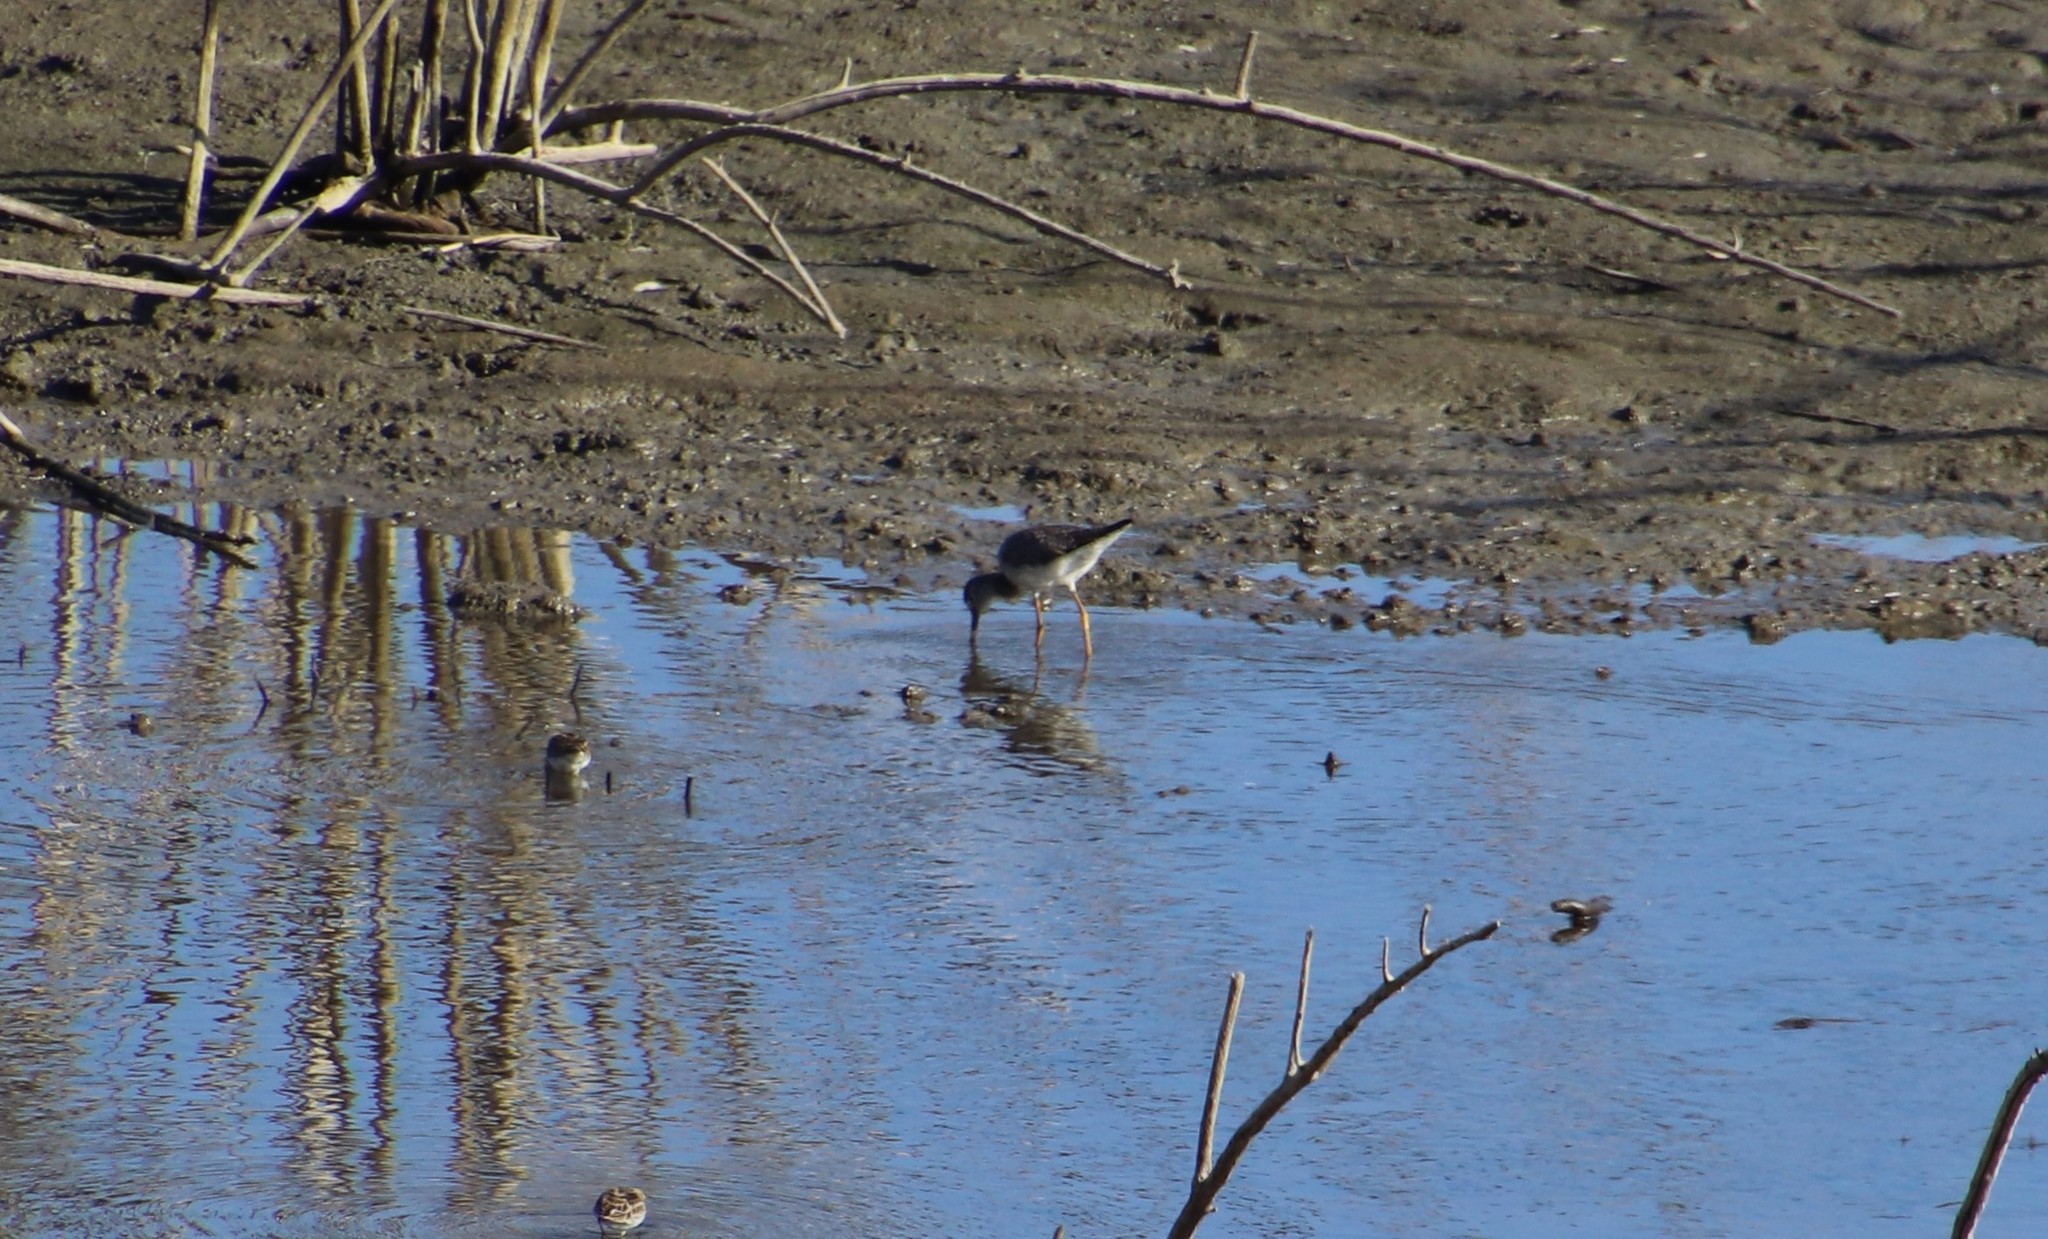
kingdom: Animalia
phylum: Chordata
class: Aves
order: Charadriiformes
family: Scolopacidae
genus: Tringa
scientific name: Tringa melanoleuca
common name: Greater yellowlegs
